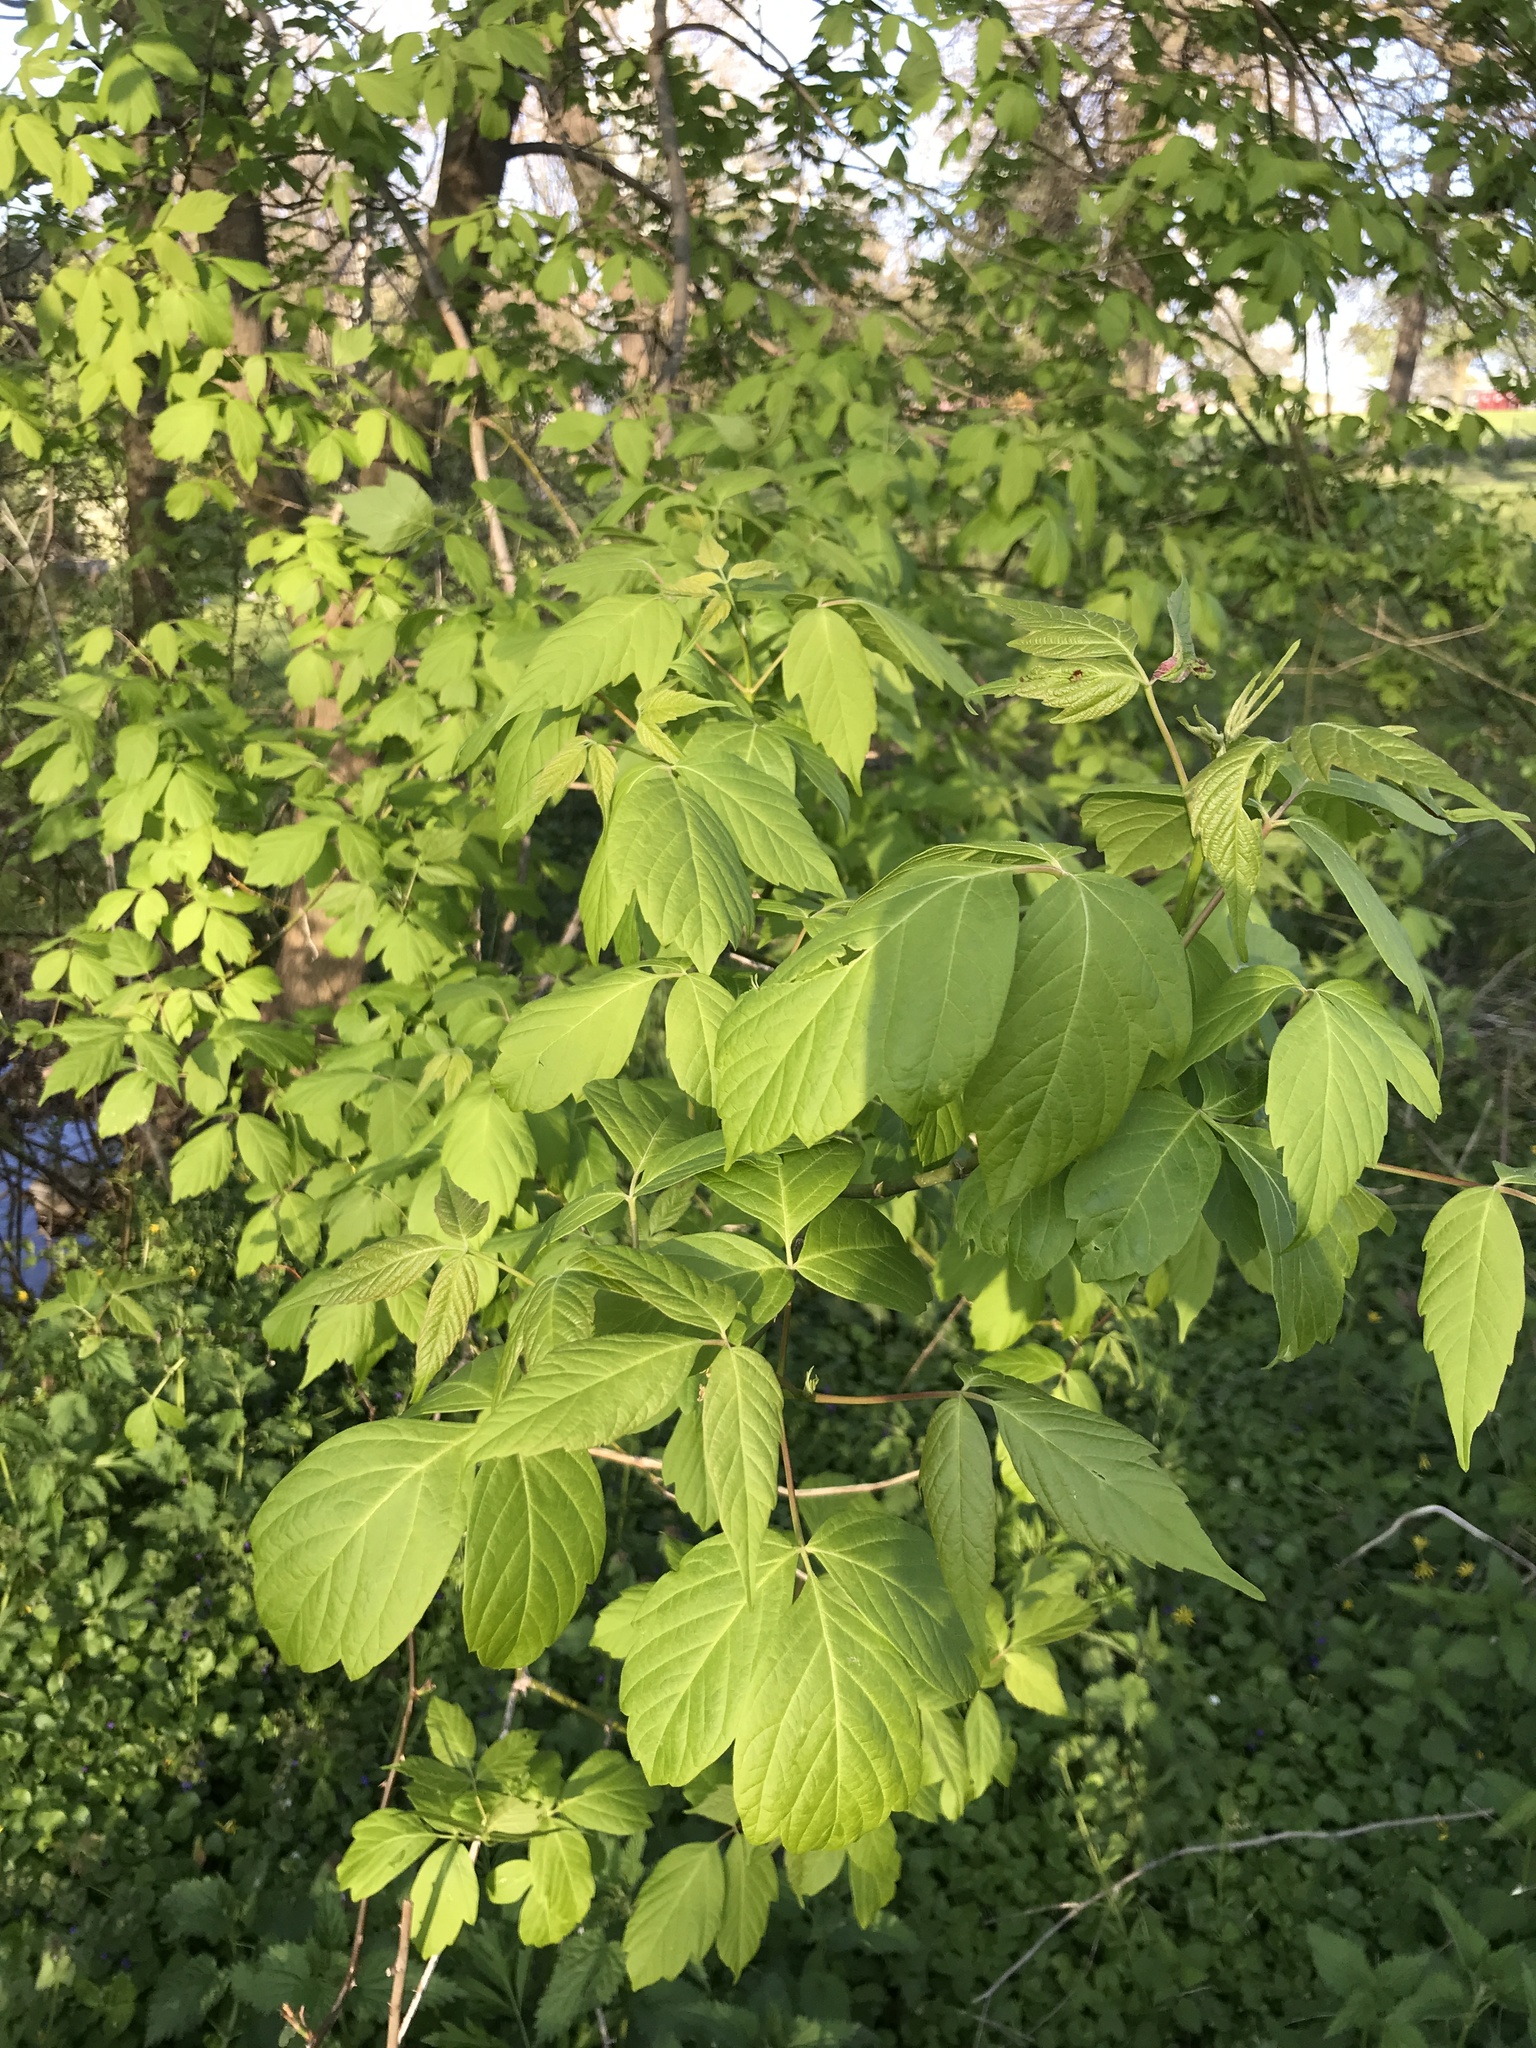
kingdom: Plantae
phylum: Tracheophyta
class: Magnoliopsida
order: Sapindales
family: Sapindaceae
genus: Acer
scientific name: Acer negundo
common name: Ashleaf maple
